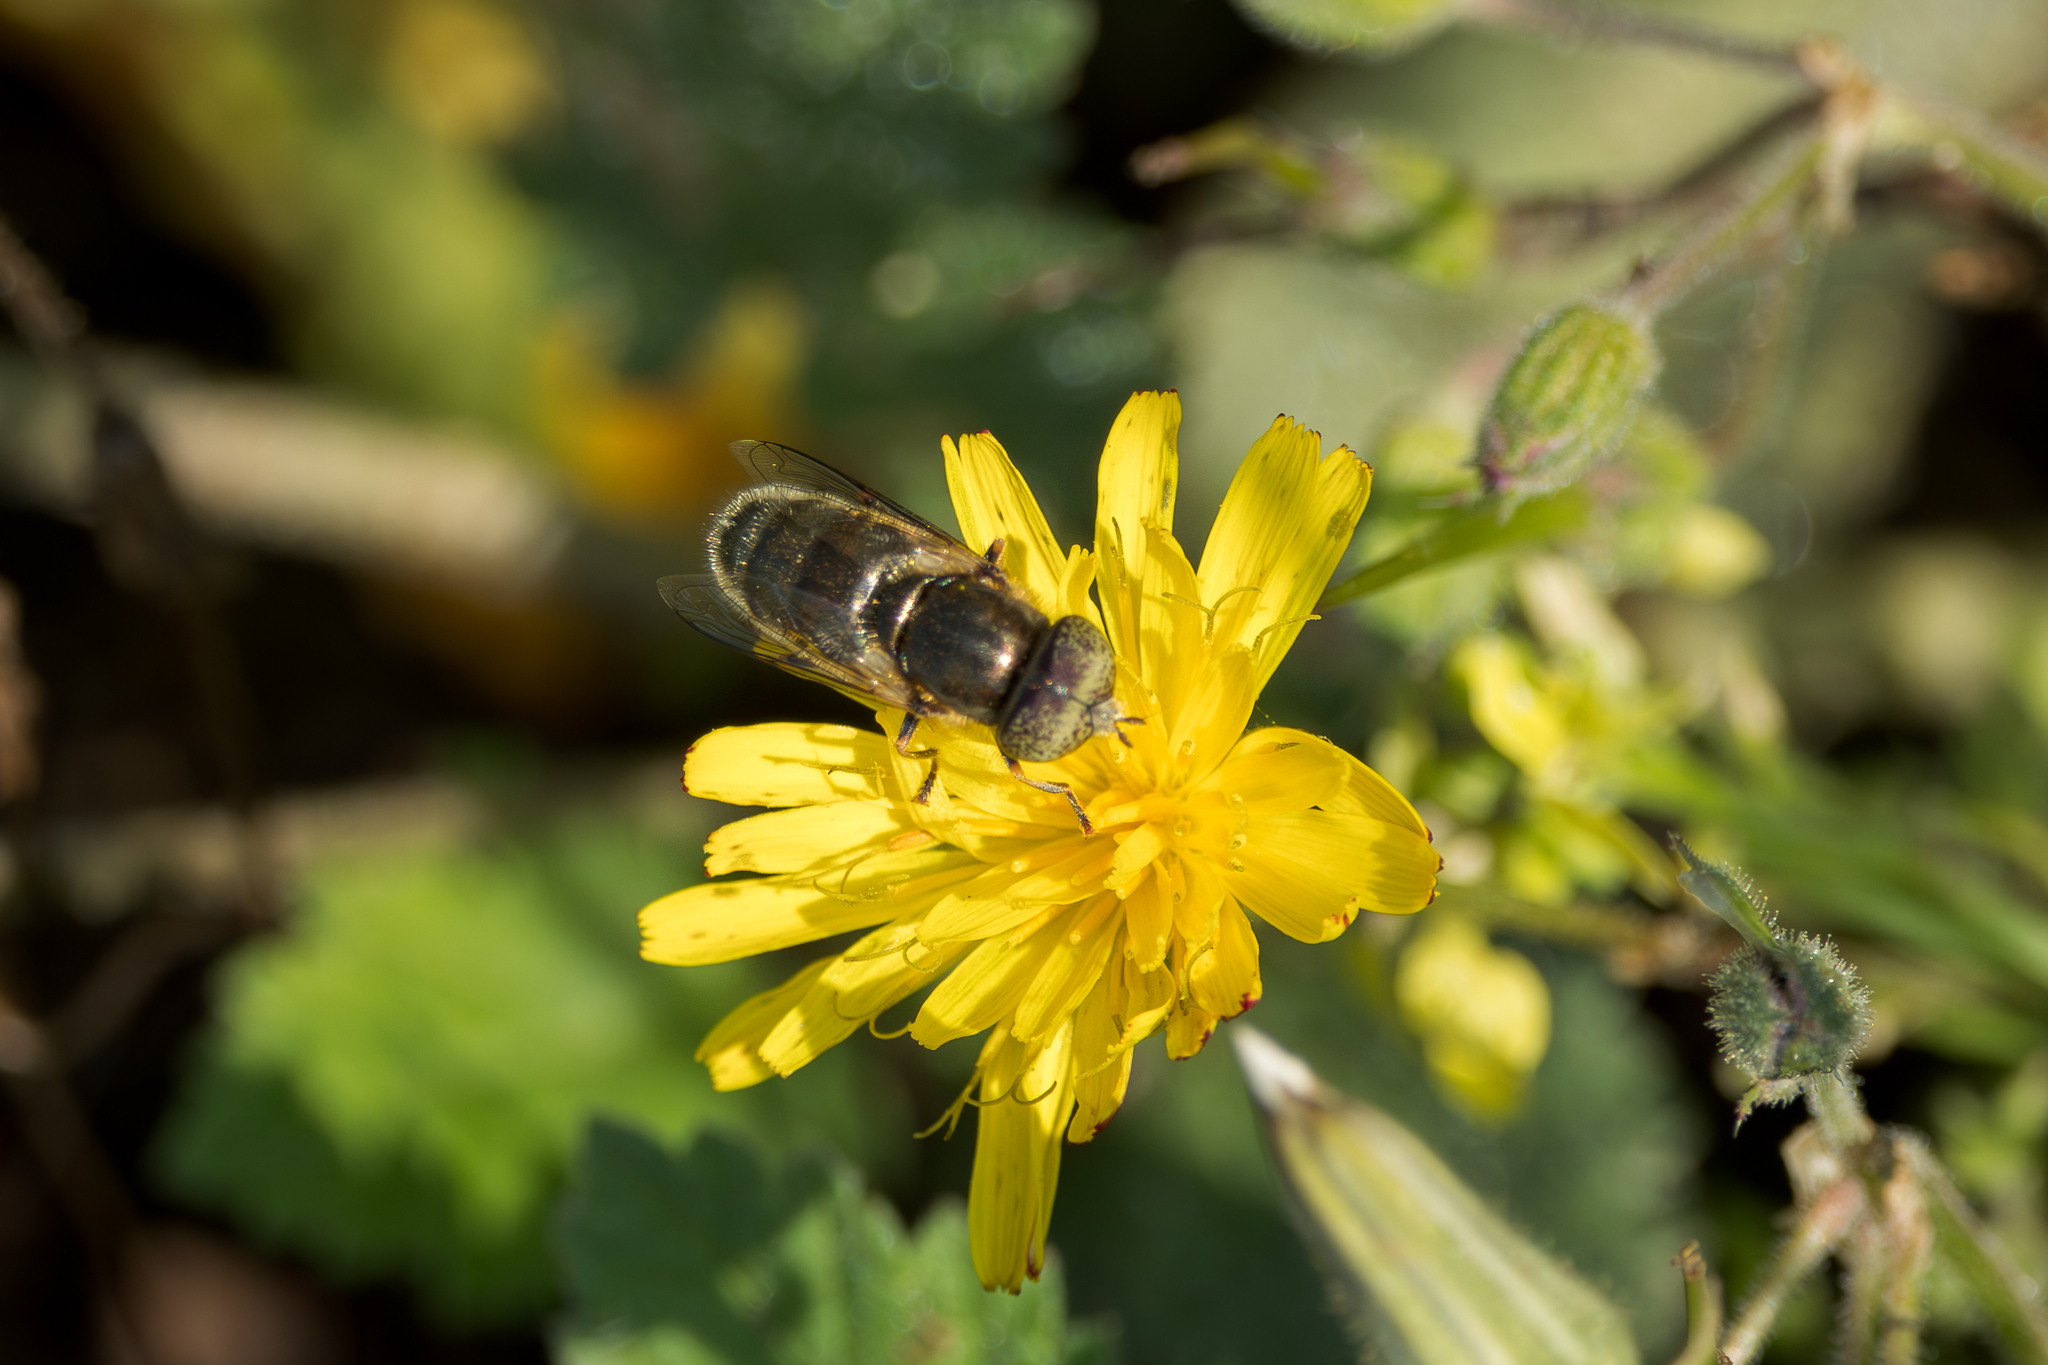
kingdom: Animalia
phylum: Arthropoda
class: Insecta
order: Diptera
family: Syrphidae
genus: Eristalinus
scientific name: Eristalinus aeneus
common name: Syrphid fly
